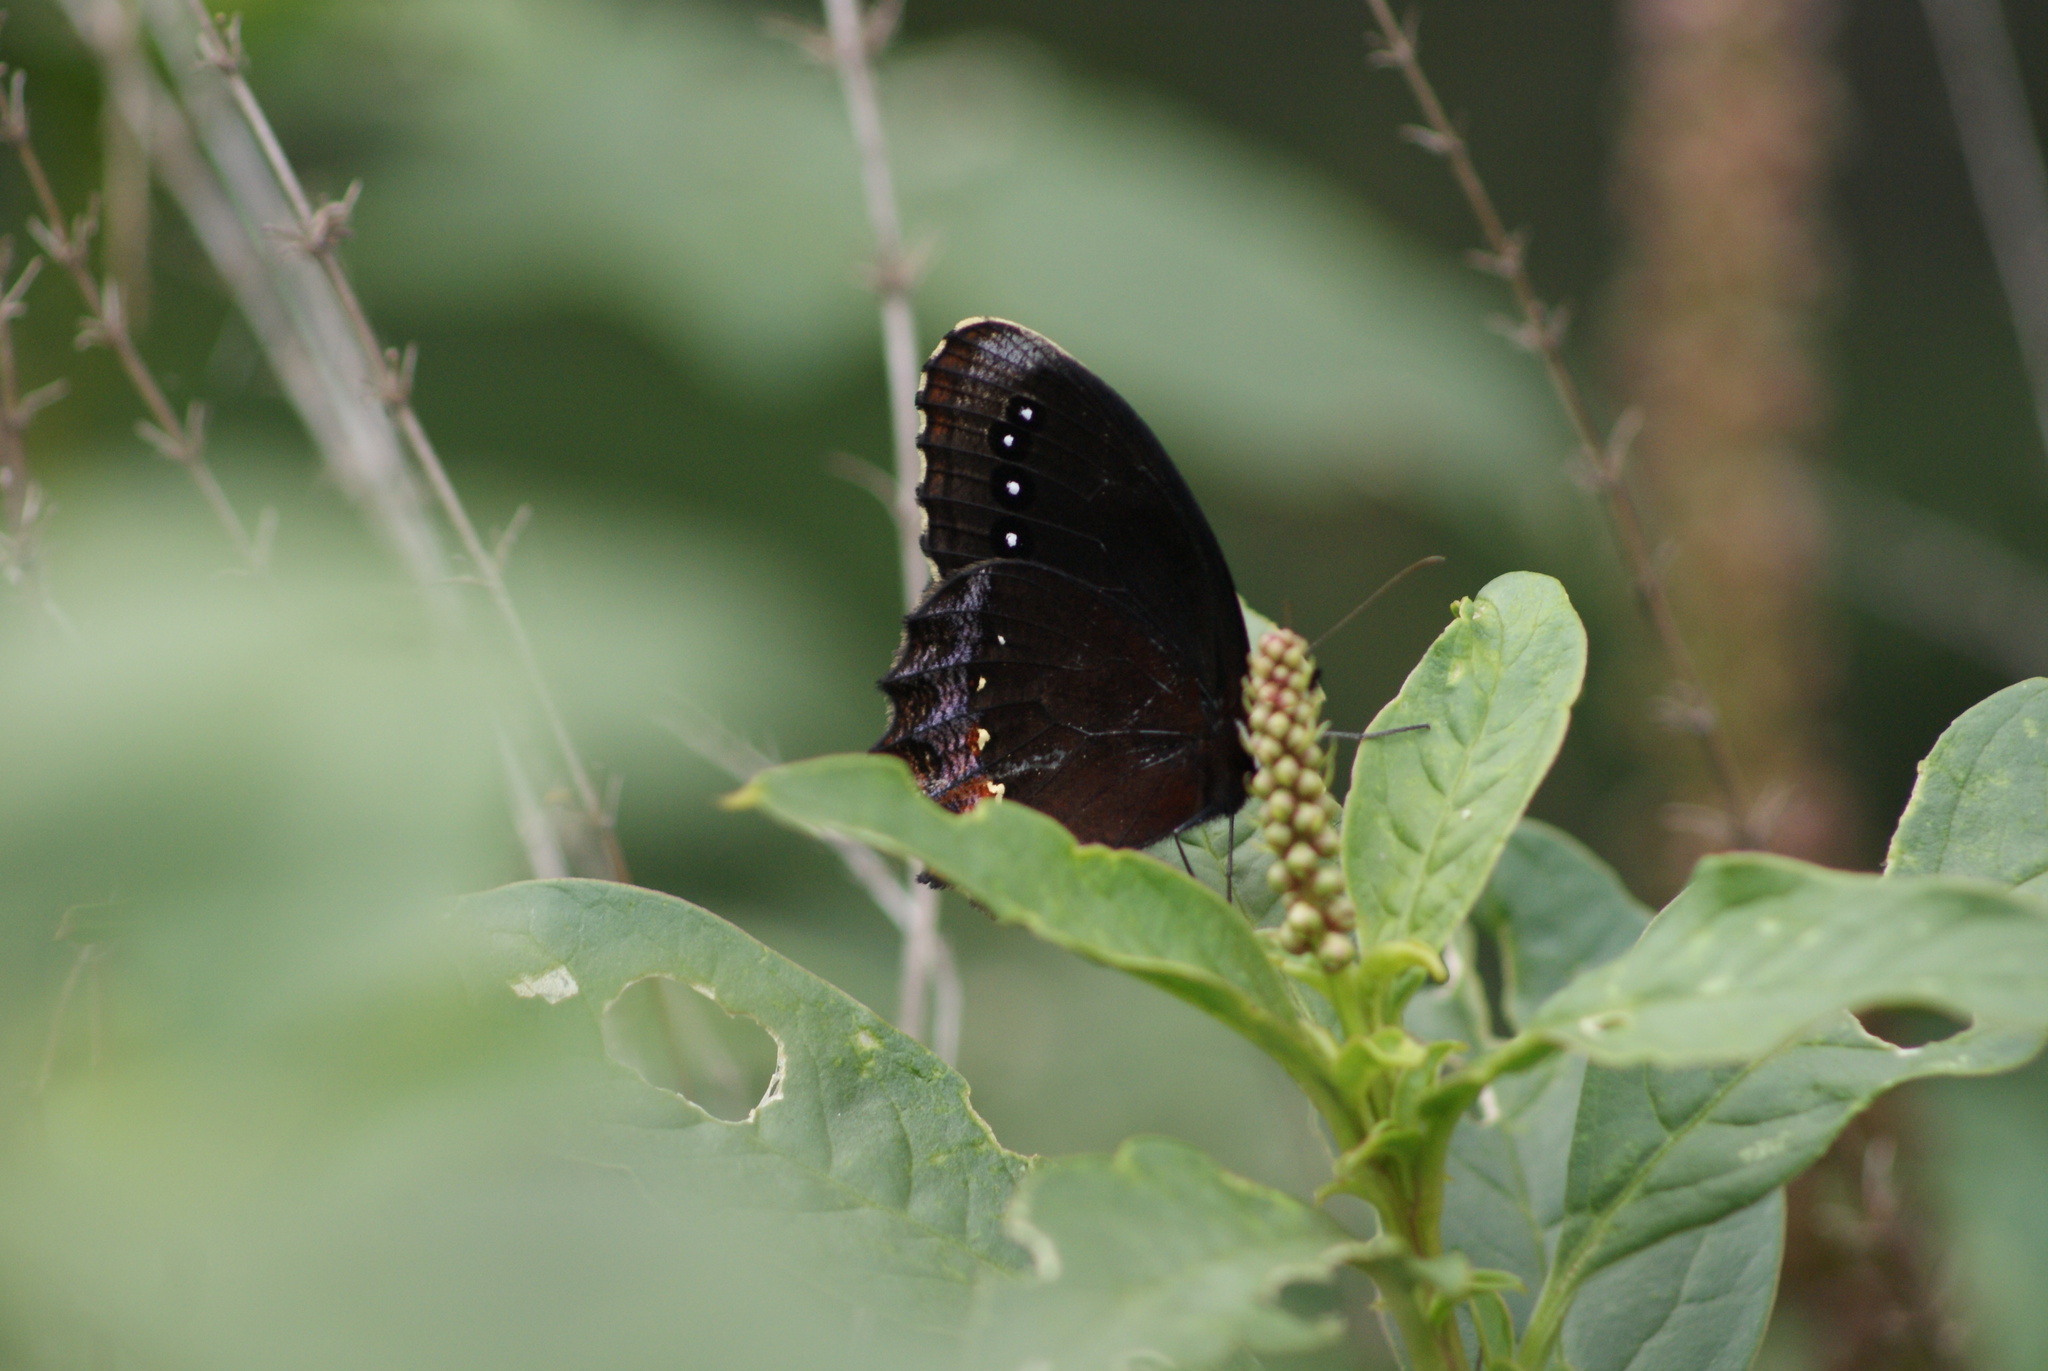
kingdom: Animalia
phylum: Arthropoda
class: Insecta
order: Lepidoptera
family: Nymphalidae
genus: Gyrocheilus
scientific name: Gyrocheilus patrobas
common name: Red-bordered satyr
